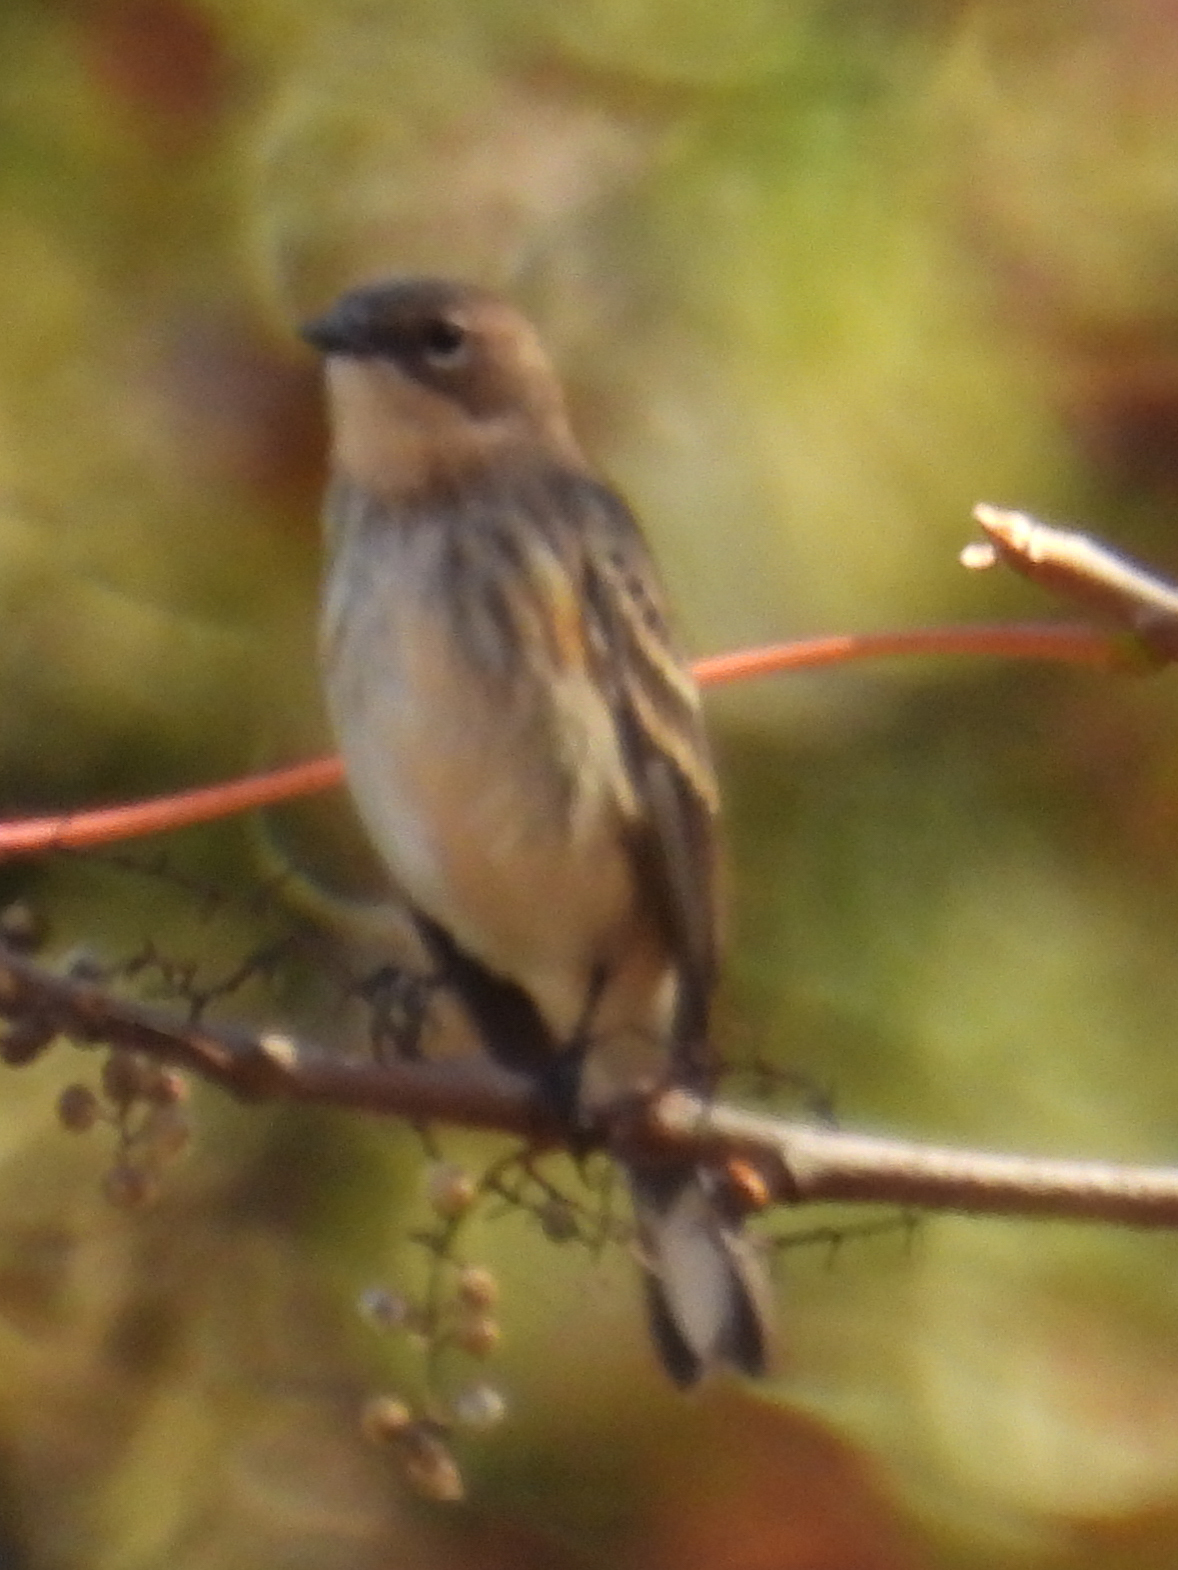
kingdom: Animalia
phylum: Chordata
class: Aves
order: Passeriformes
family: Parulidae
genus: Setophaga
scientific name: Setophaga coronata
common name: Myrtle warbler
